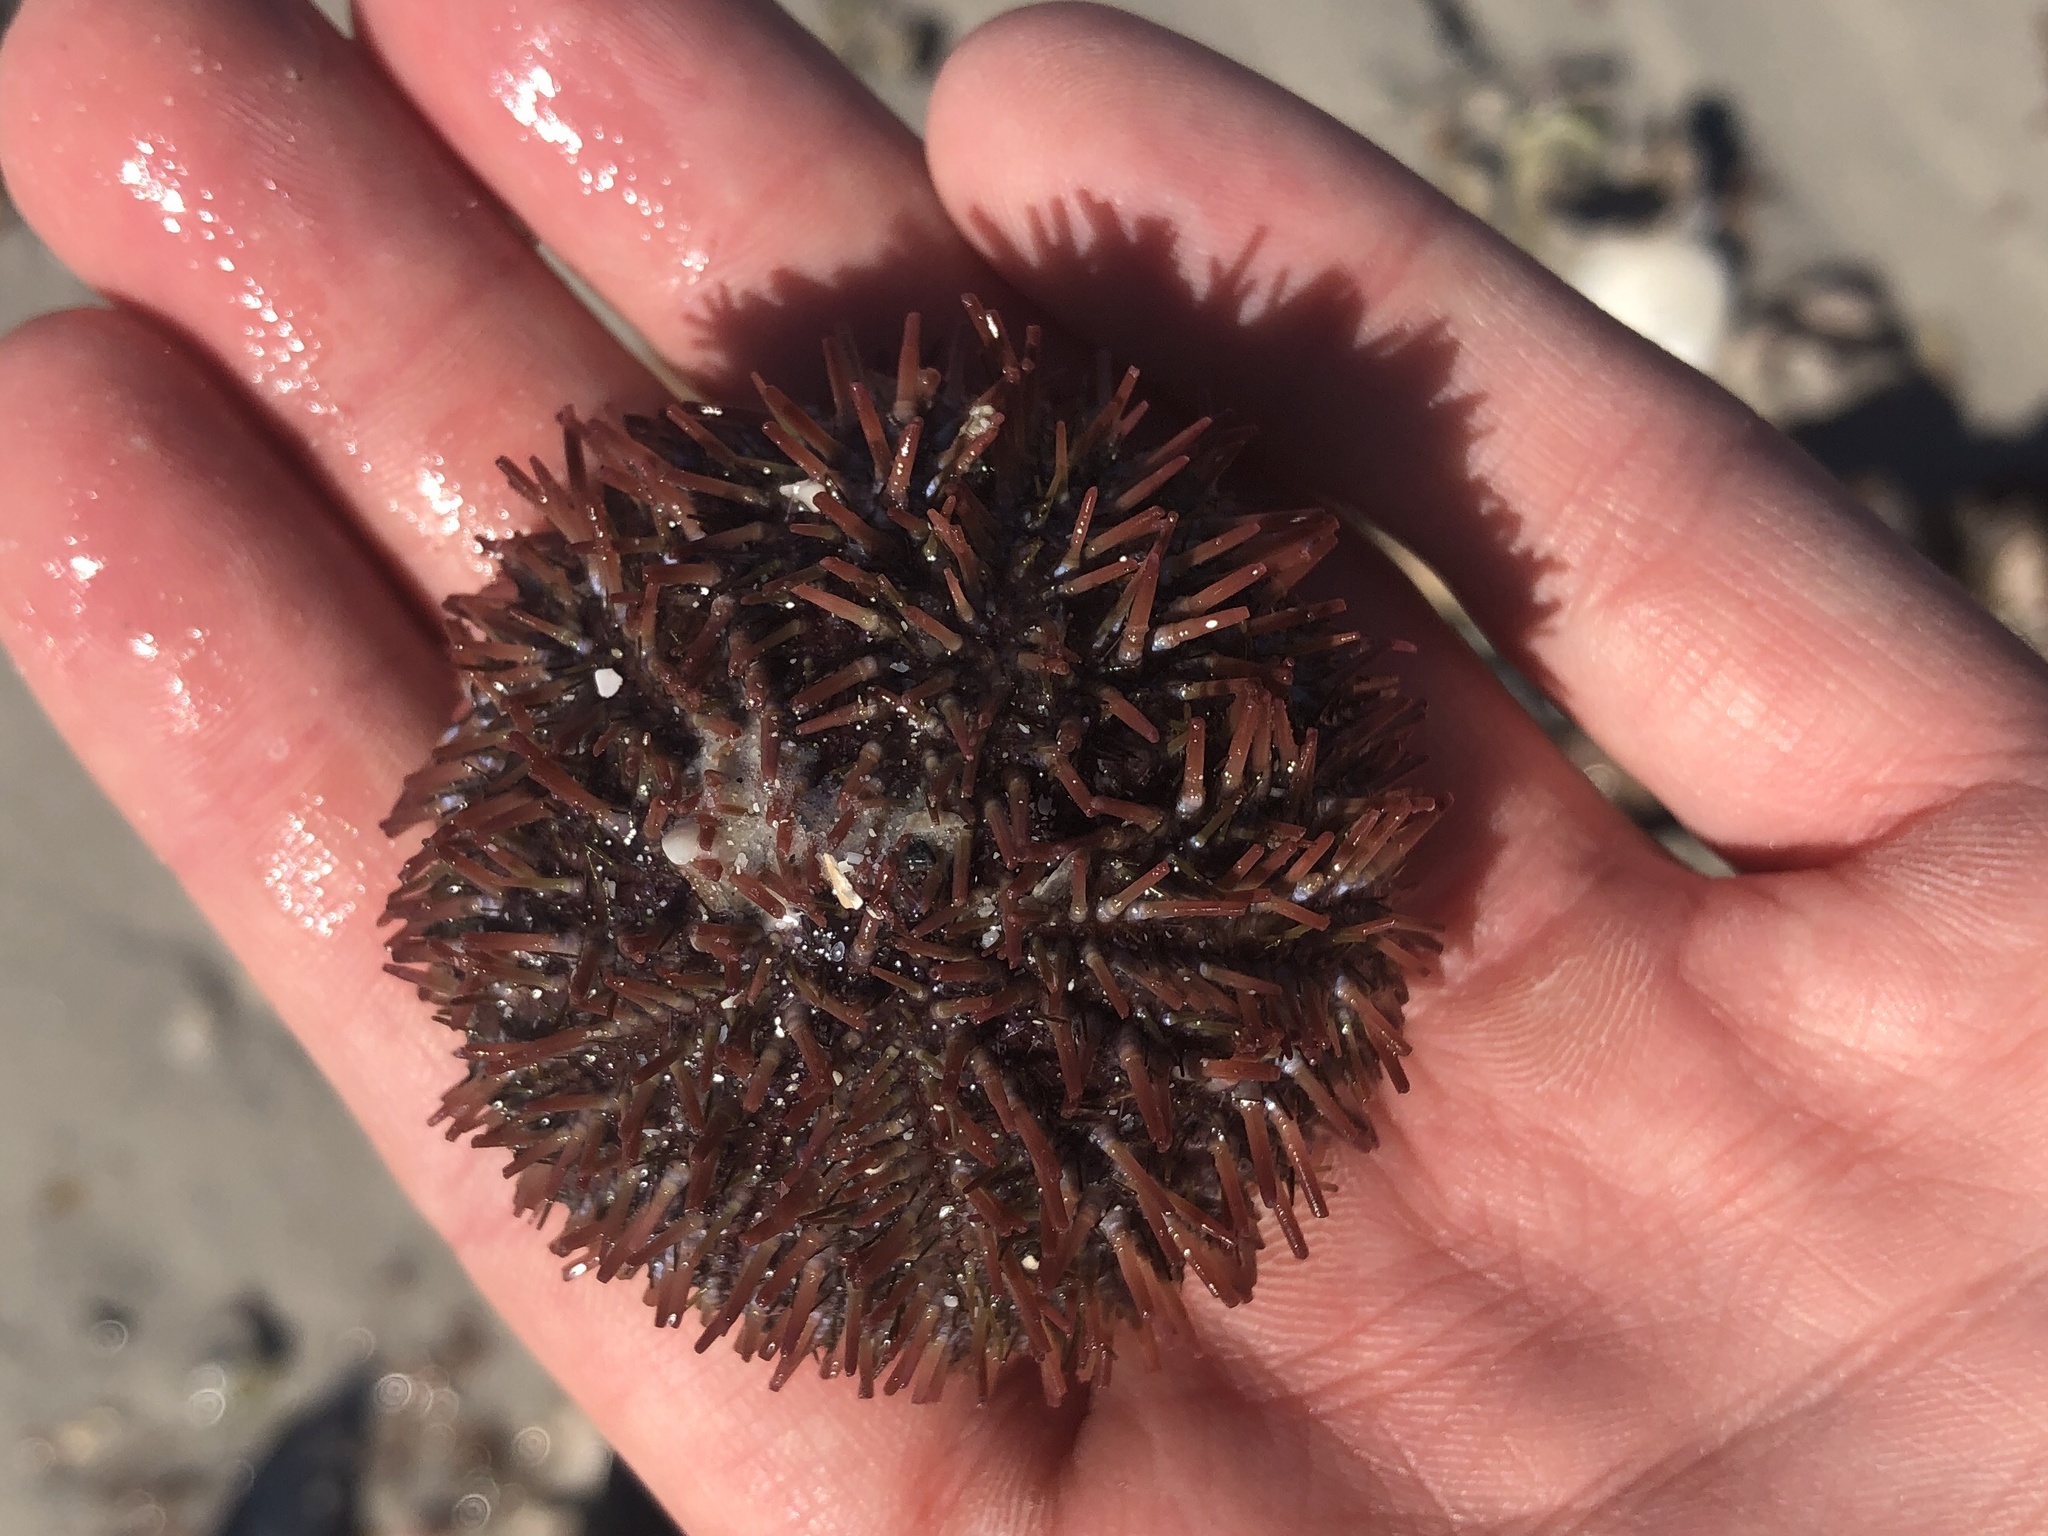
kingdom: Animalia
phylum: Echinodermata
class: Echinoidea
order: Camarodonta
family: Toxopneustidae
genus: Lytechinus
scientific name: Lytechinus variegatus
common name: Variegated urchin
